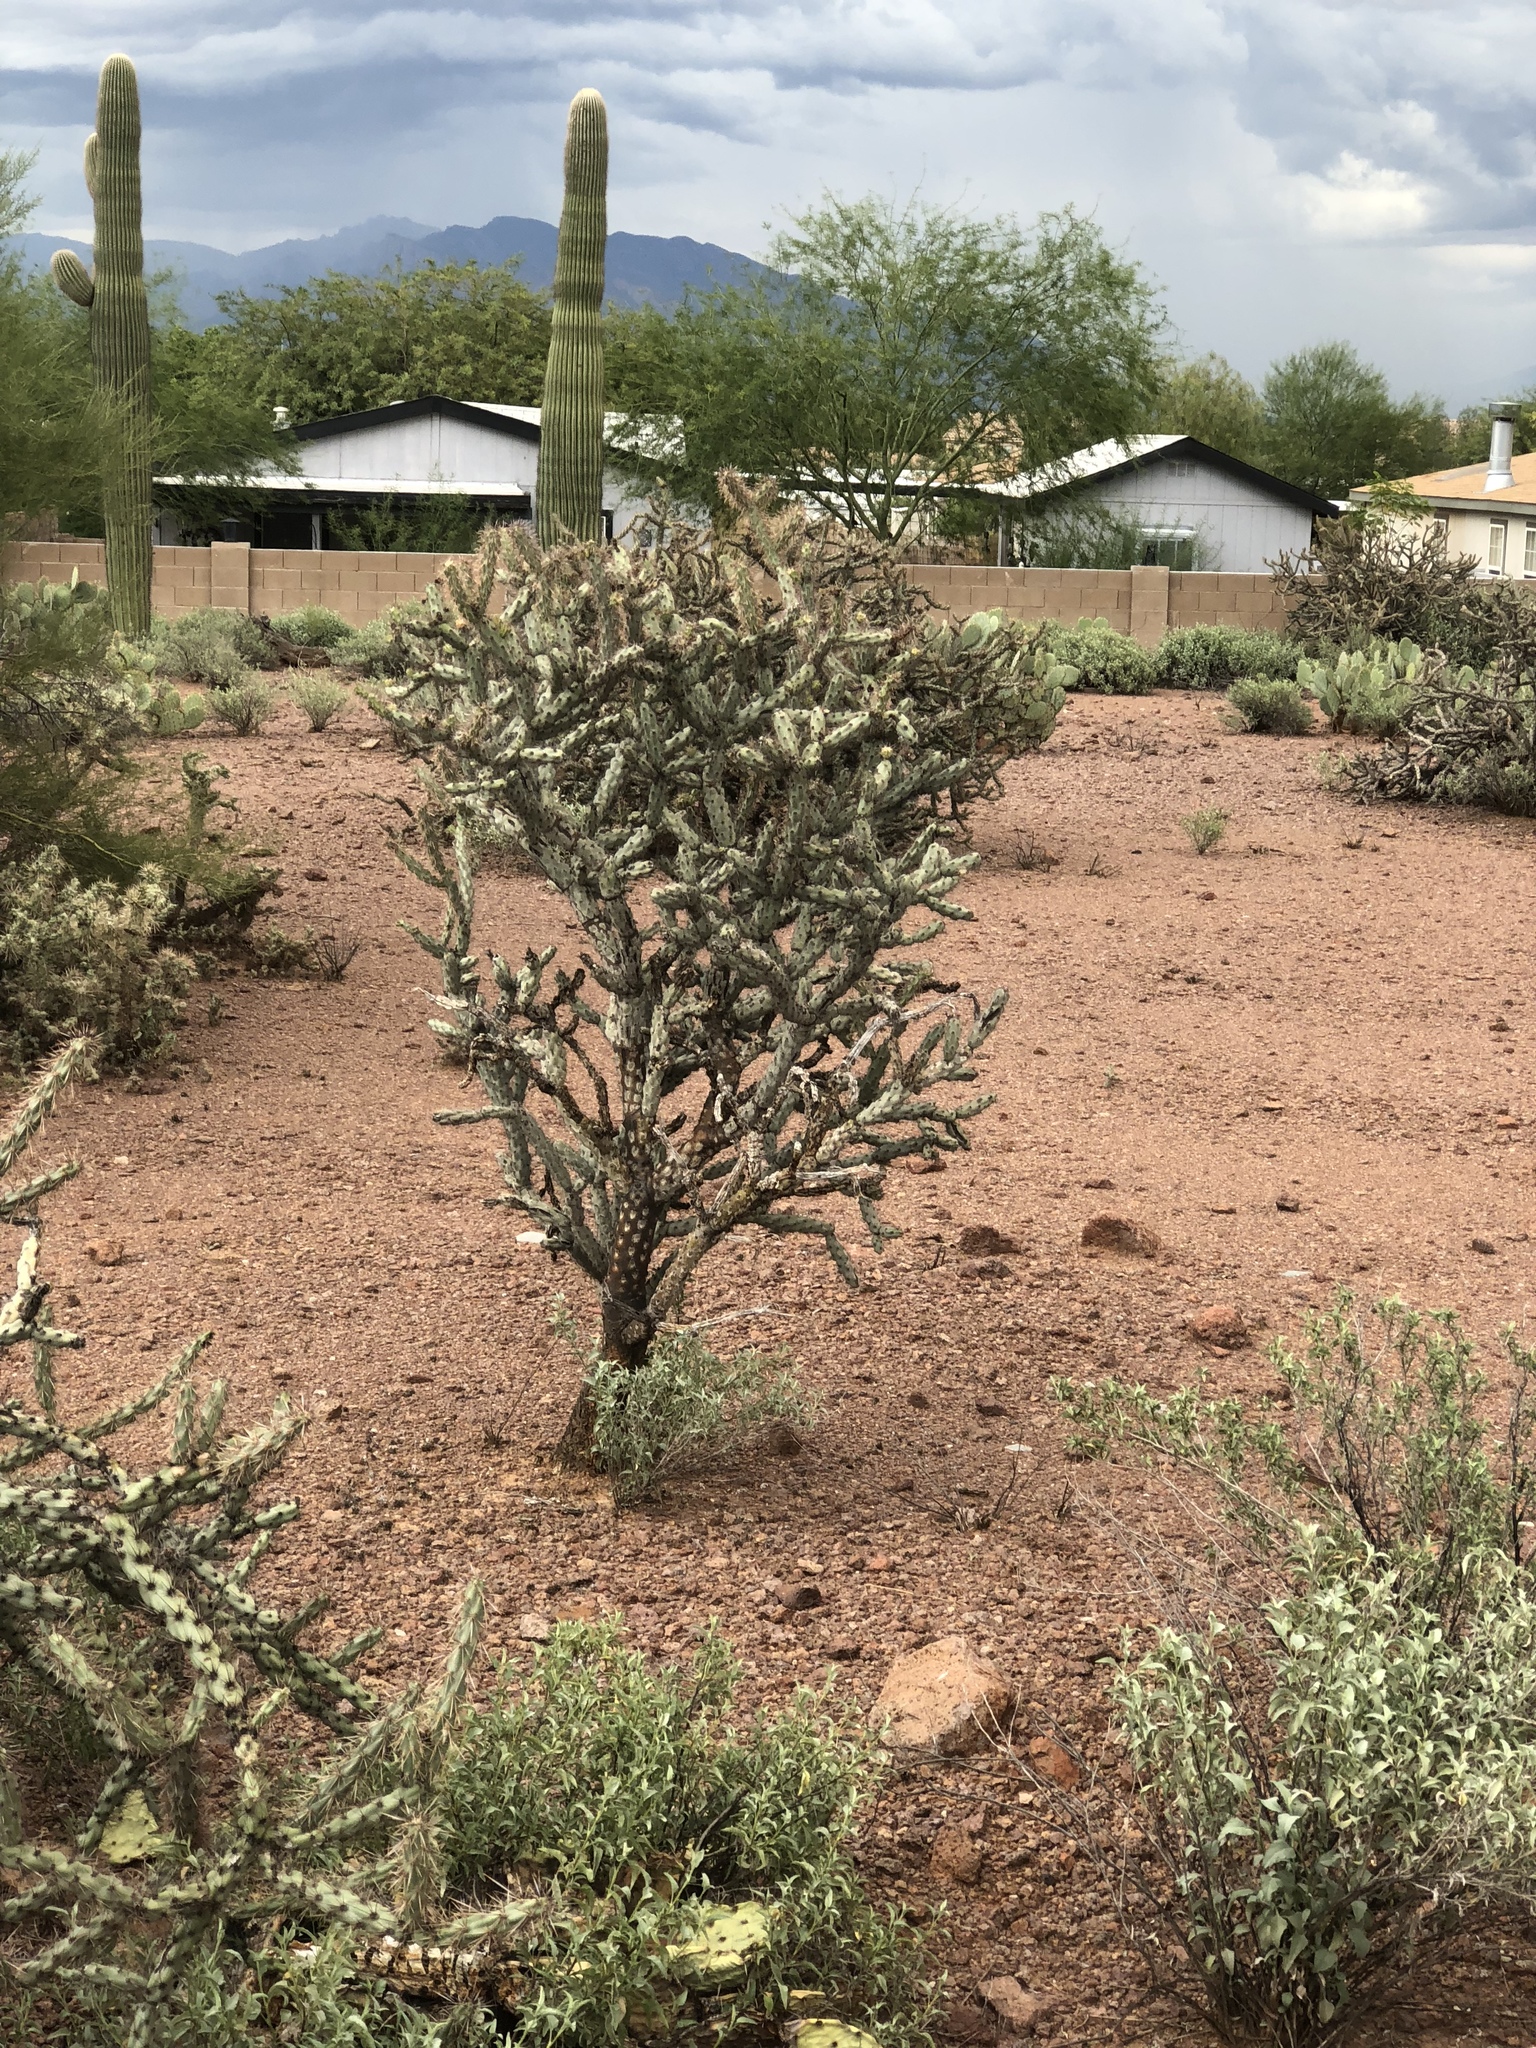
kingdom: Plantae
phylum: Tracheophyta
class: Magnoliopsida
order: Caryophyllales
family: Cactaceae
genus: Cylindropuntia
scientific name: Cylindropuntia thurberi
